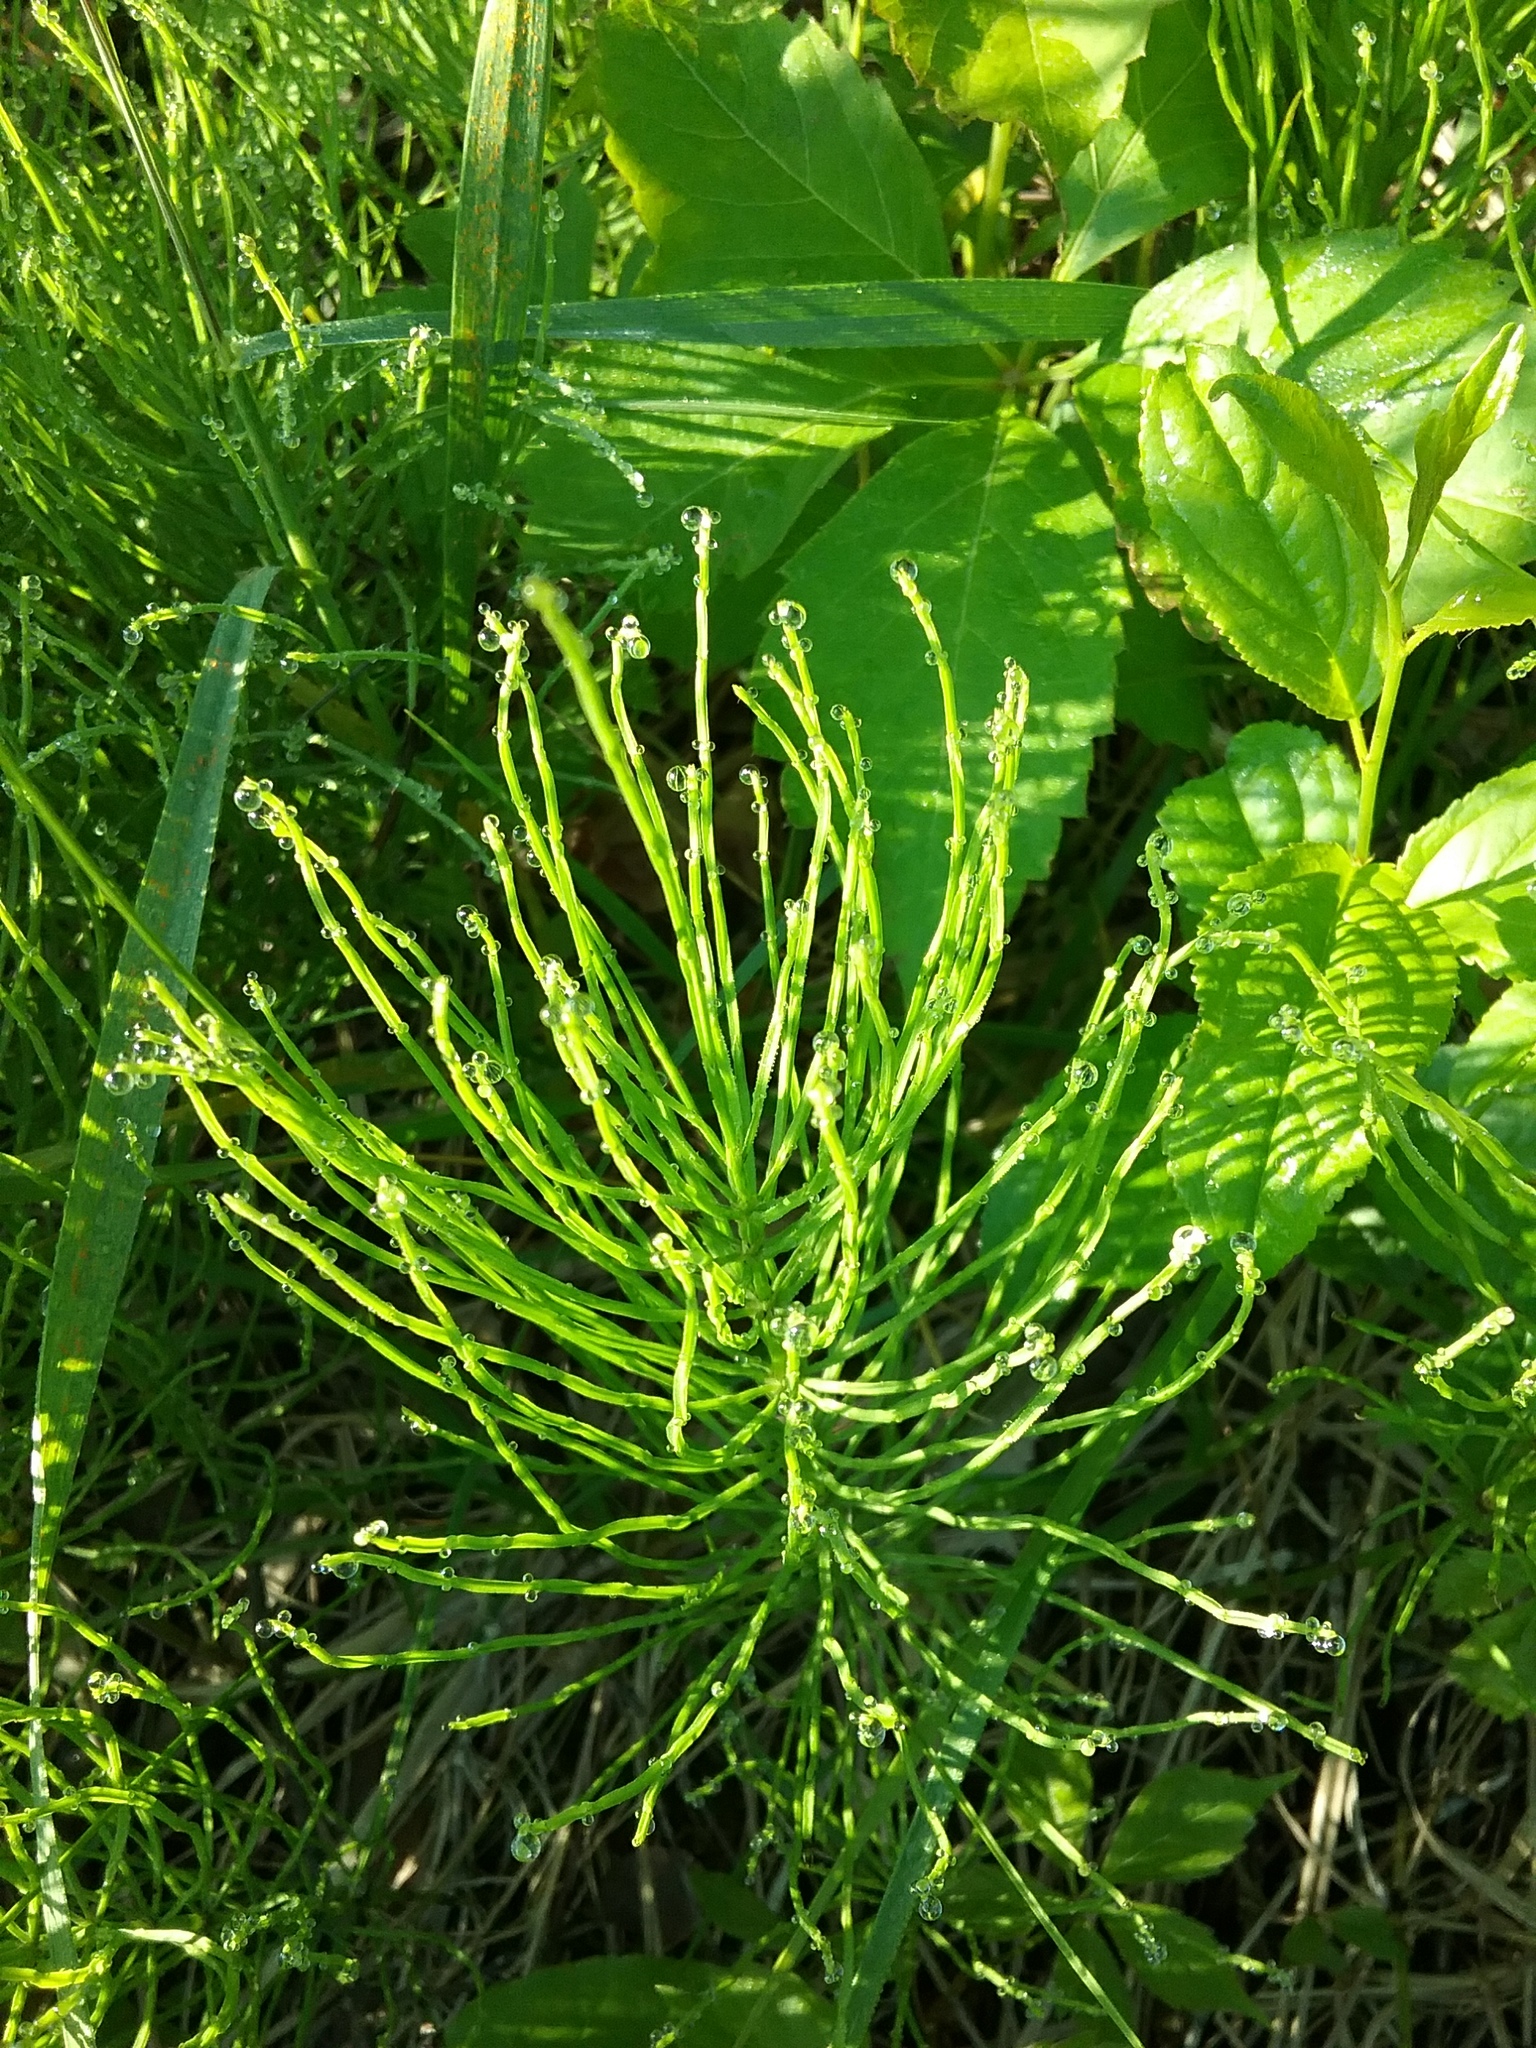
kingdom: Plantae
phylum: Tracheophyta
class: Polypodiopsida
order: Equisetales
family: Equisetaceae
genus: Equisetum
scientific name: Equisetum arvense
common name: Field horsetail
